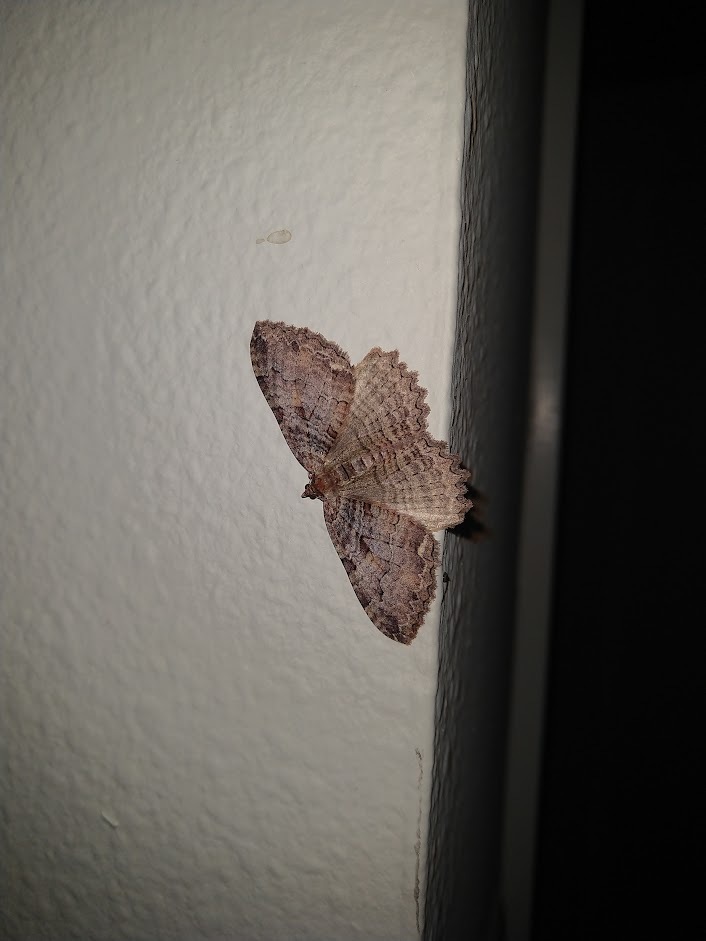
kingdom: Animalia
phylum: Arthropoda
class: Insecta
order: Lepidoptera
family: Geometridae
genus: Triphosa
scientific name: Triphosa haesitata
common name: Tissue moth
